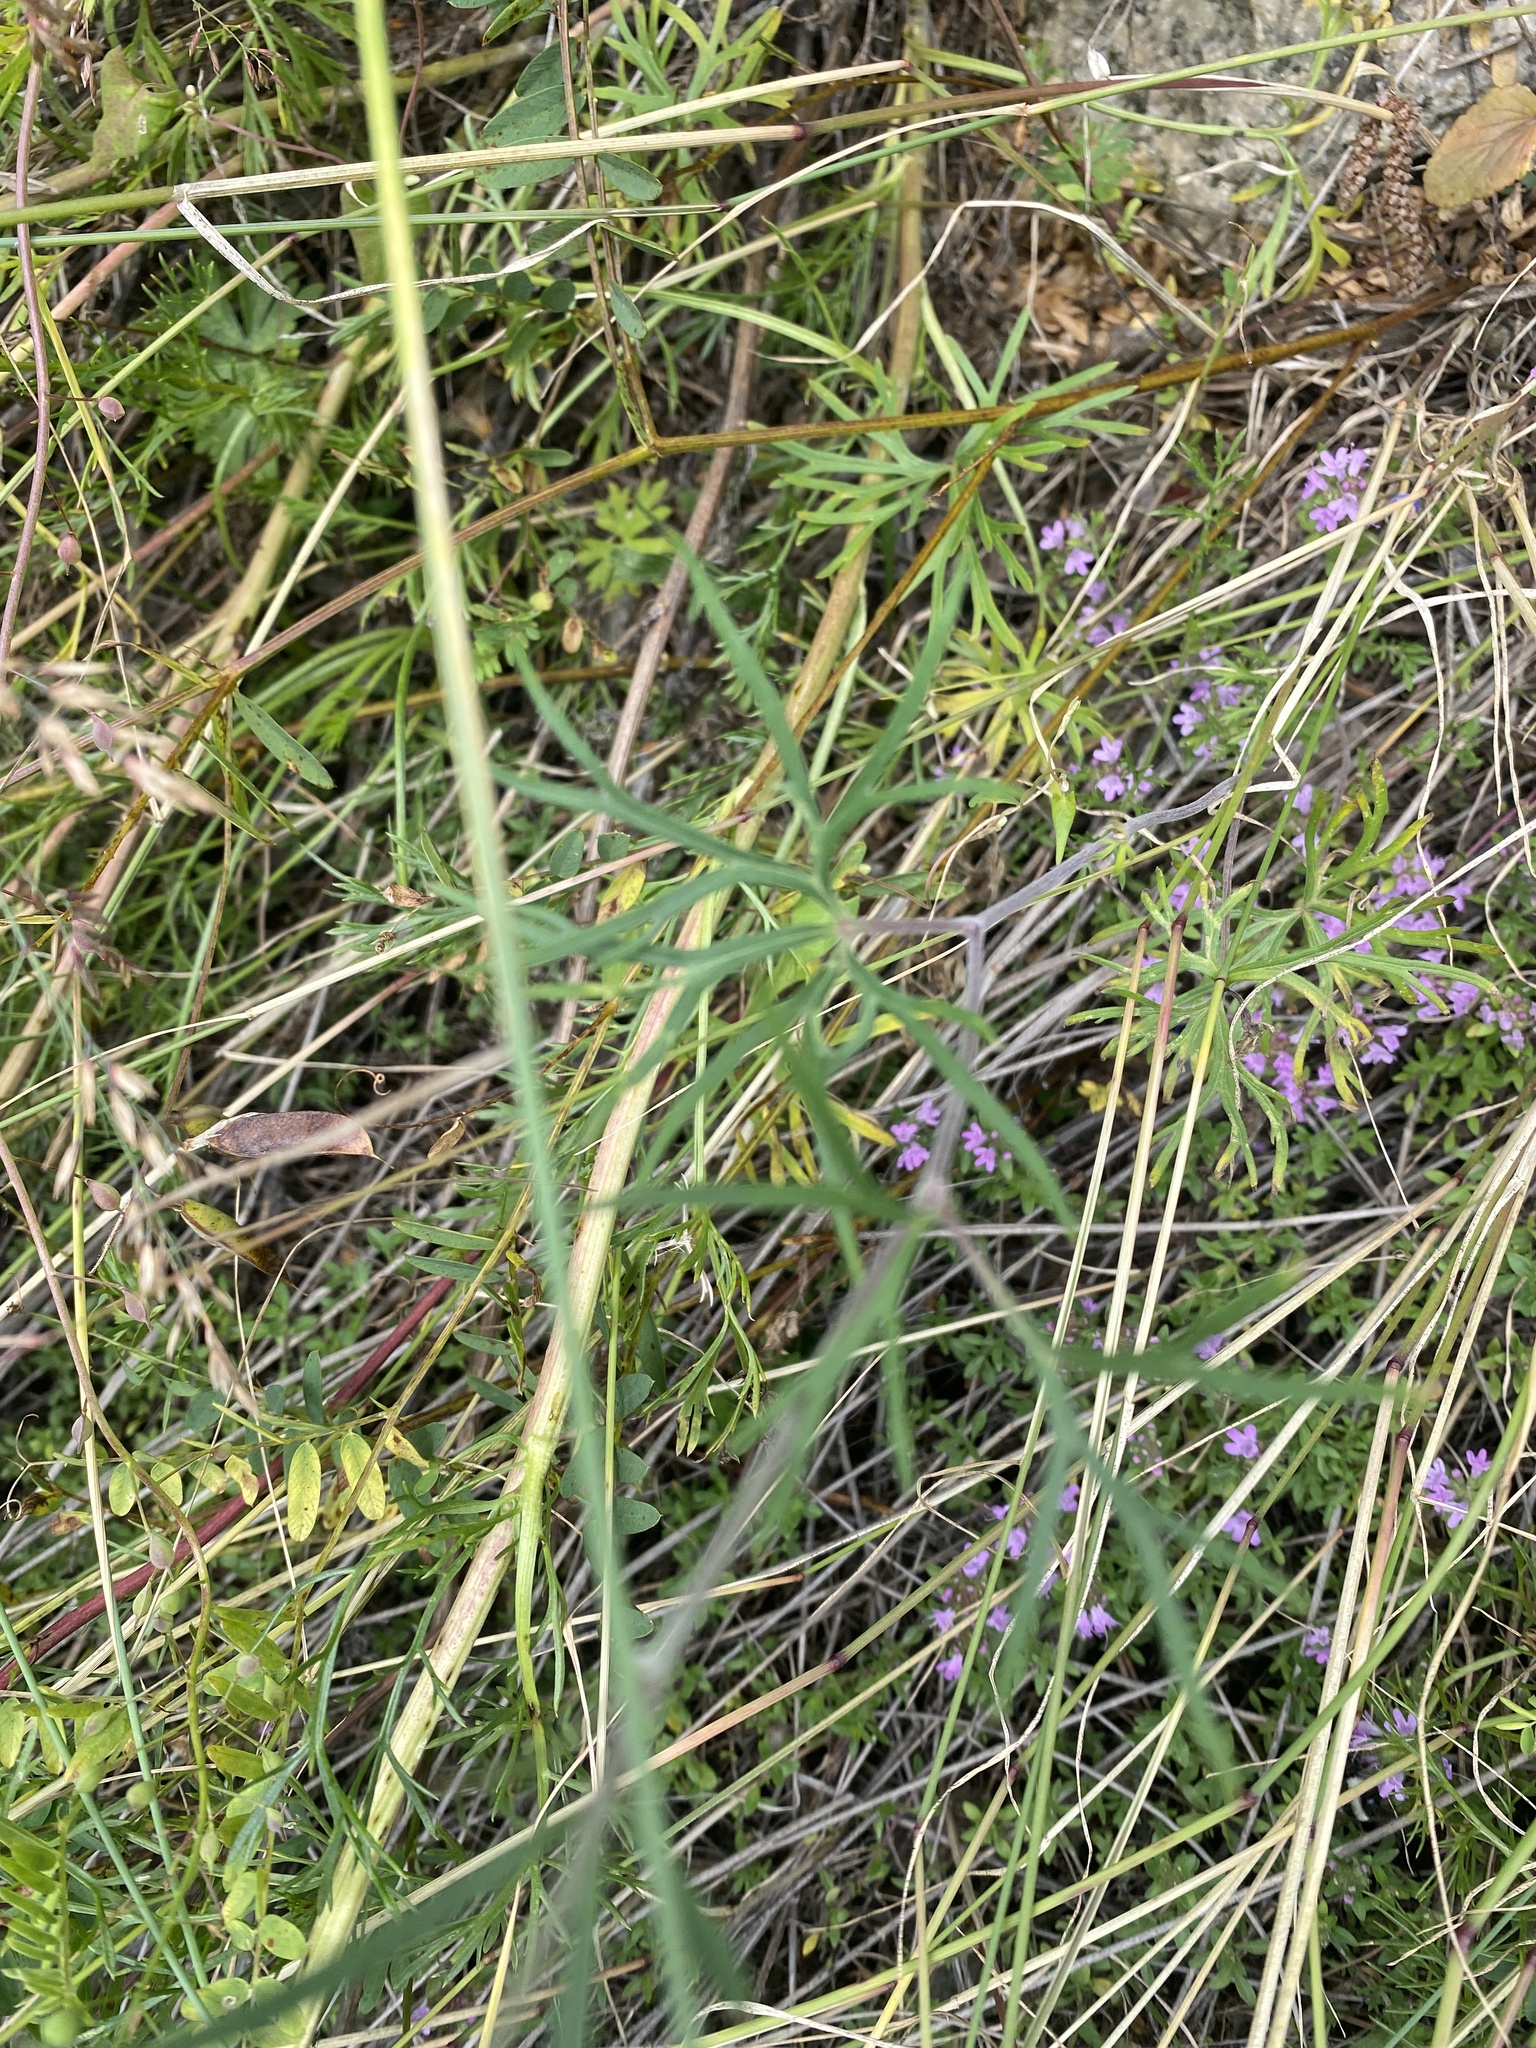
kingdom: Plantae
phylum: Tracheophyta
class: Magnoliopsida
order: Ranunculales
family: Ranunculaceae
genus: Delphinium
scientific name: Delphinium grandiflorum
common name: Siberian larkspur
